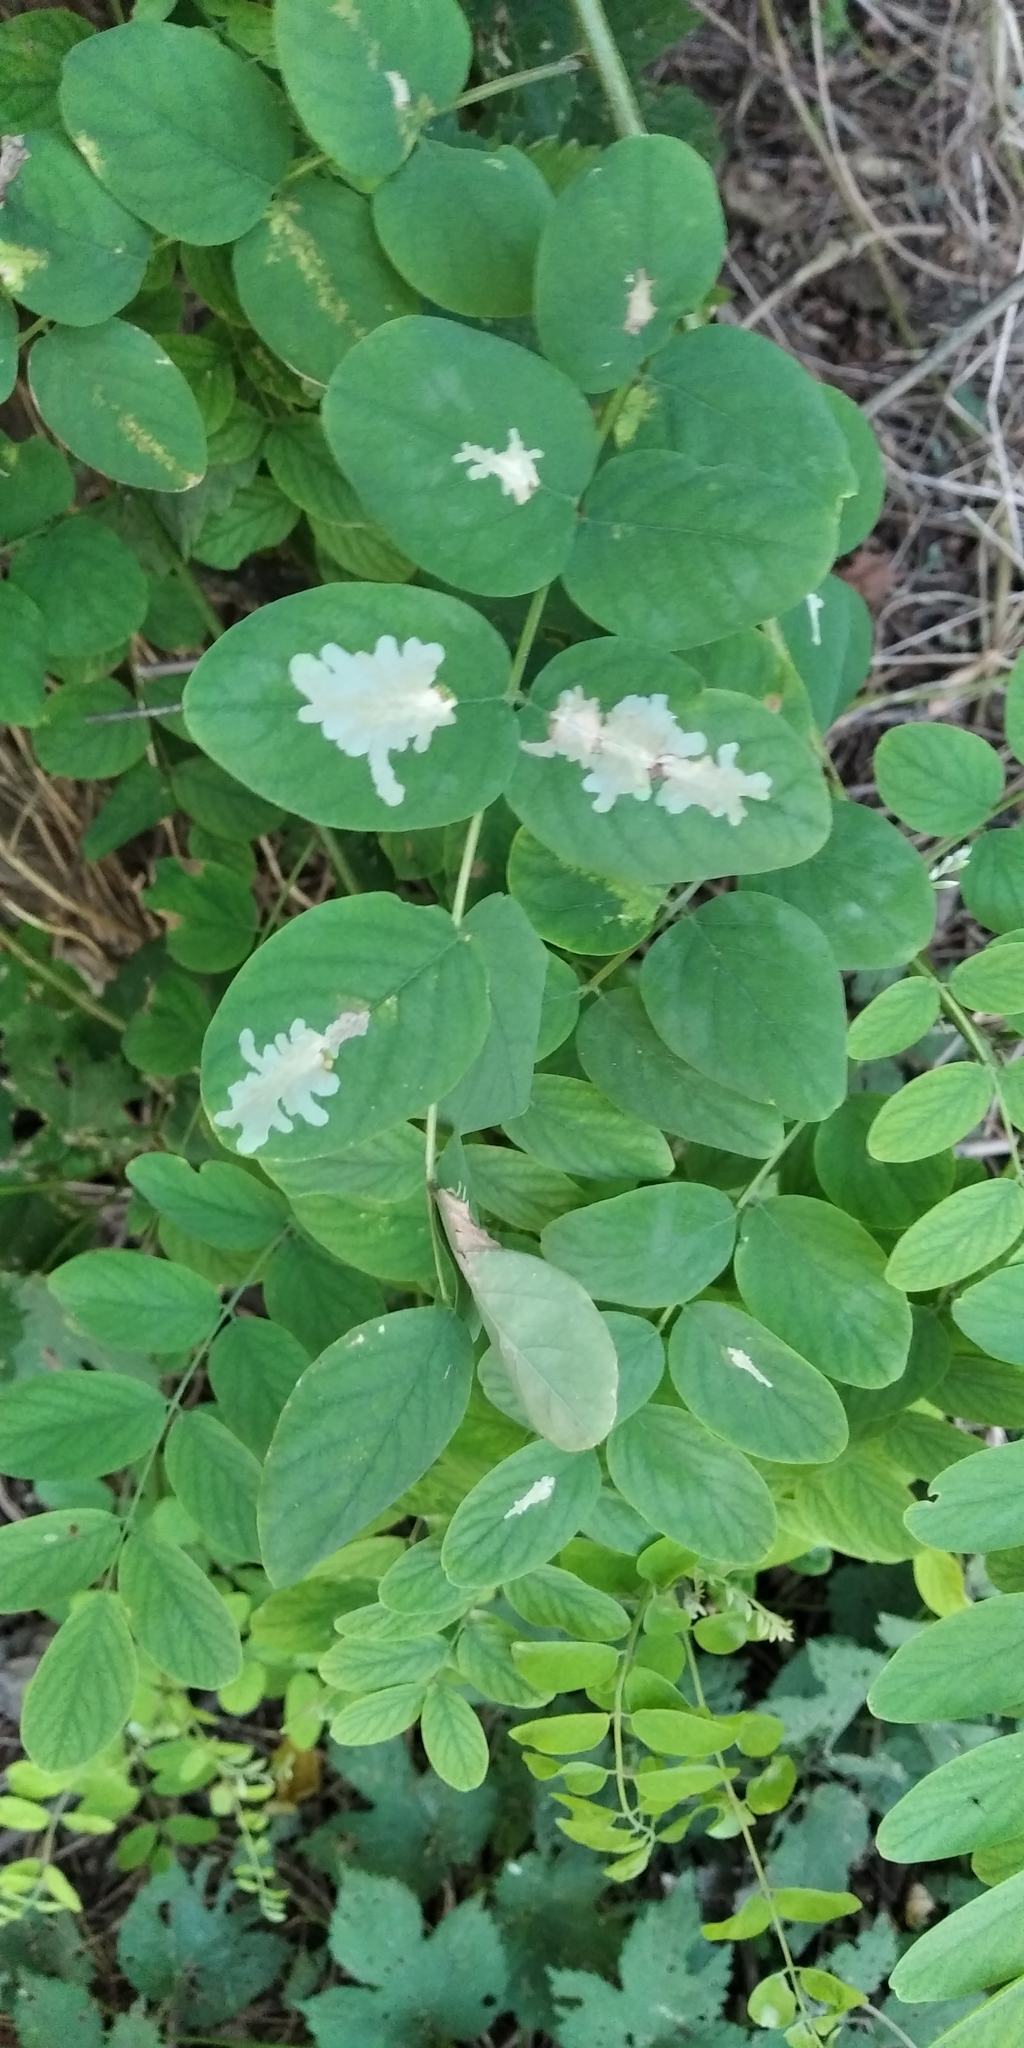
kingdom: Animalia
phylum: Arthropoda
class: Insecta
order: Lepidoptera
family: Gracillariidae
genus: Parectopa
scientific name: Parectopa robiniella
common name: Locust digitate leafminer
